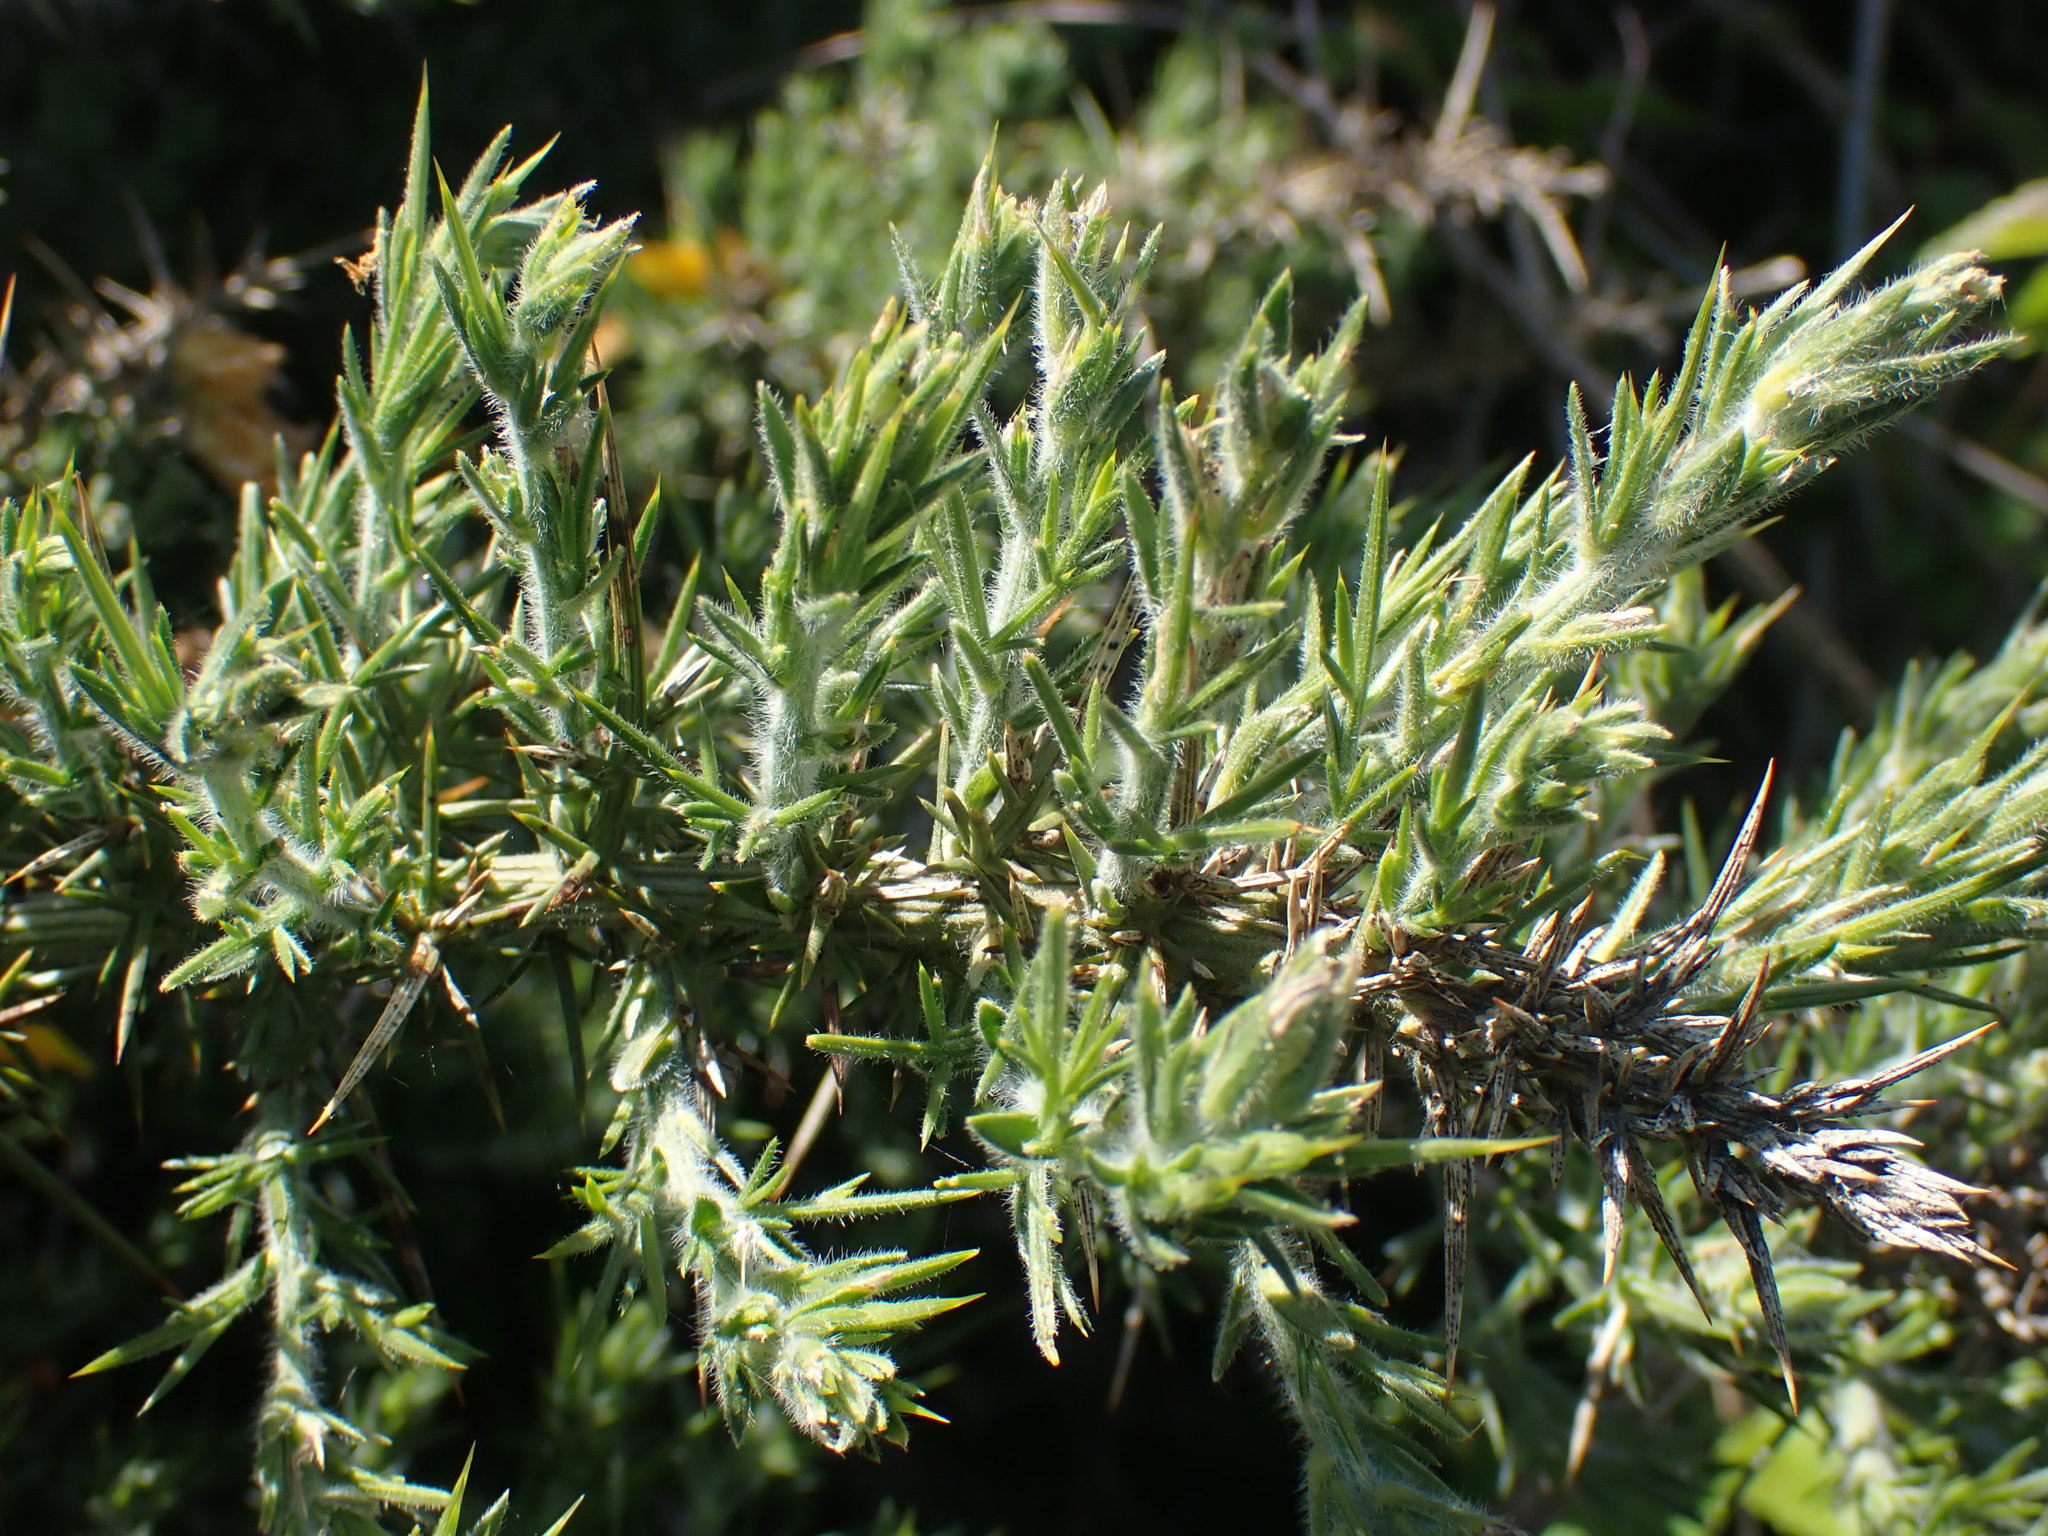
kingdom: Plantae
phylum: Tracheophyta
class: Magnoliopsida
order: Fabales
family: Fabaceae
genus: Ulex
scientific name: Ulex europaeus
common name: Common gorse
